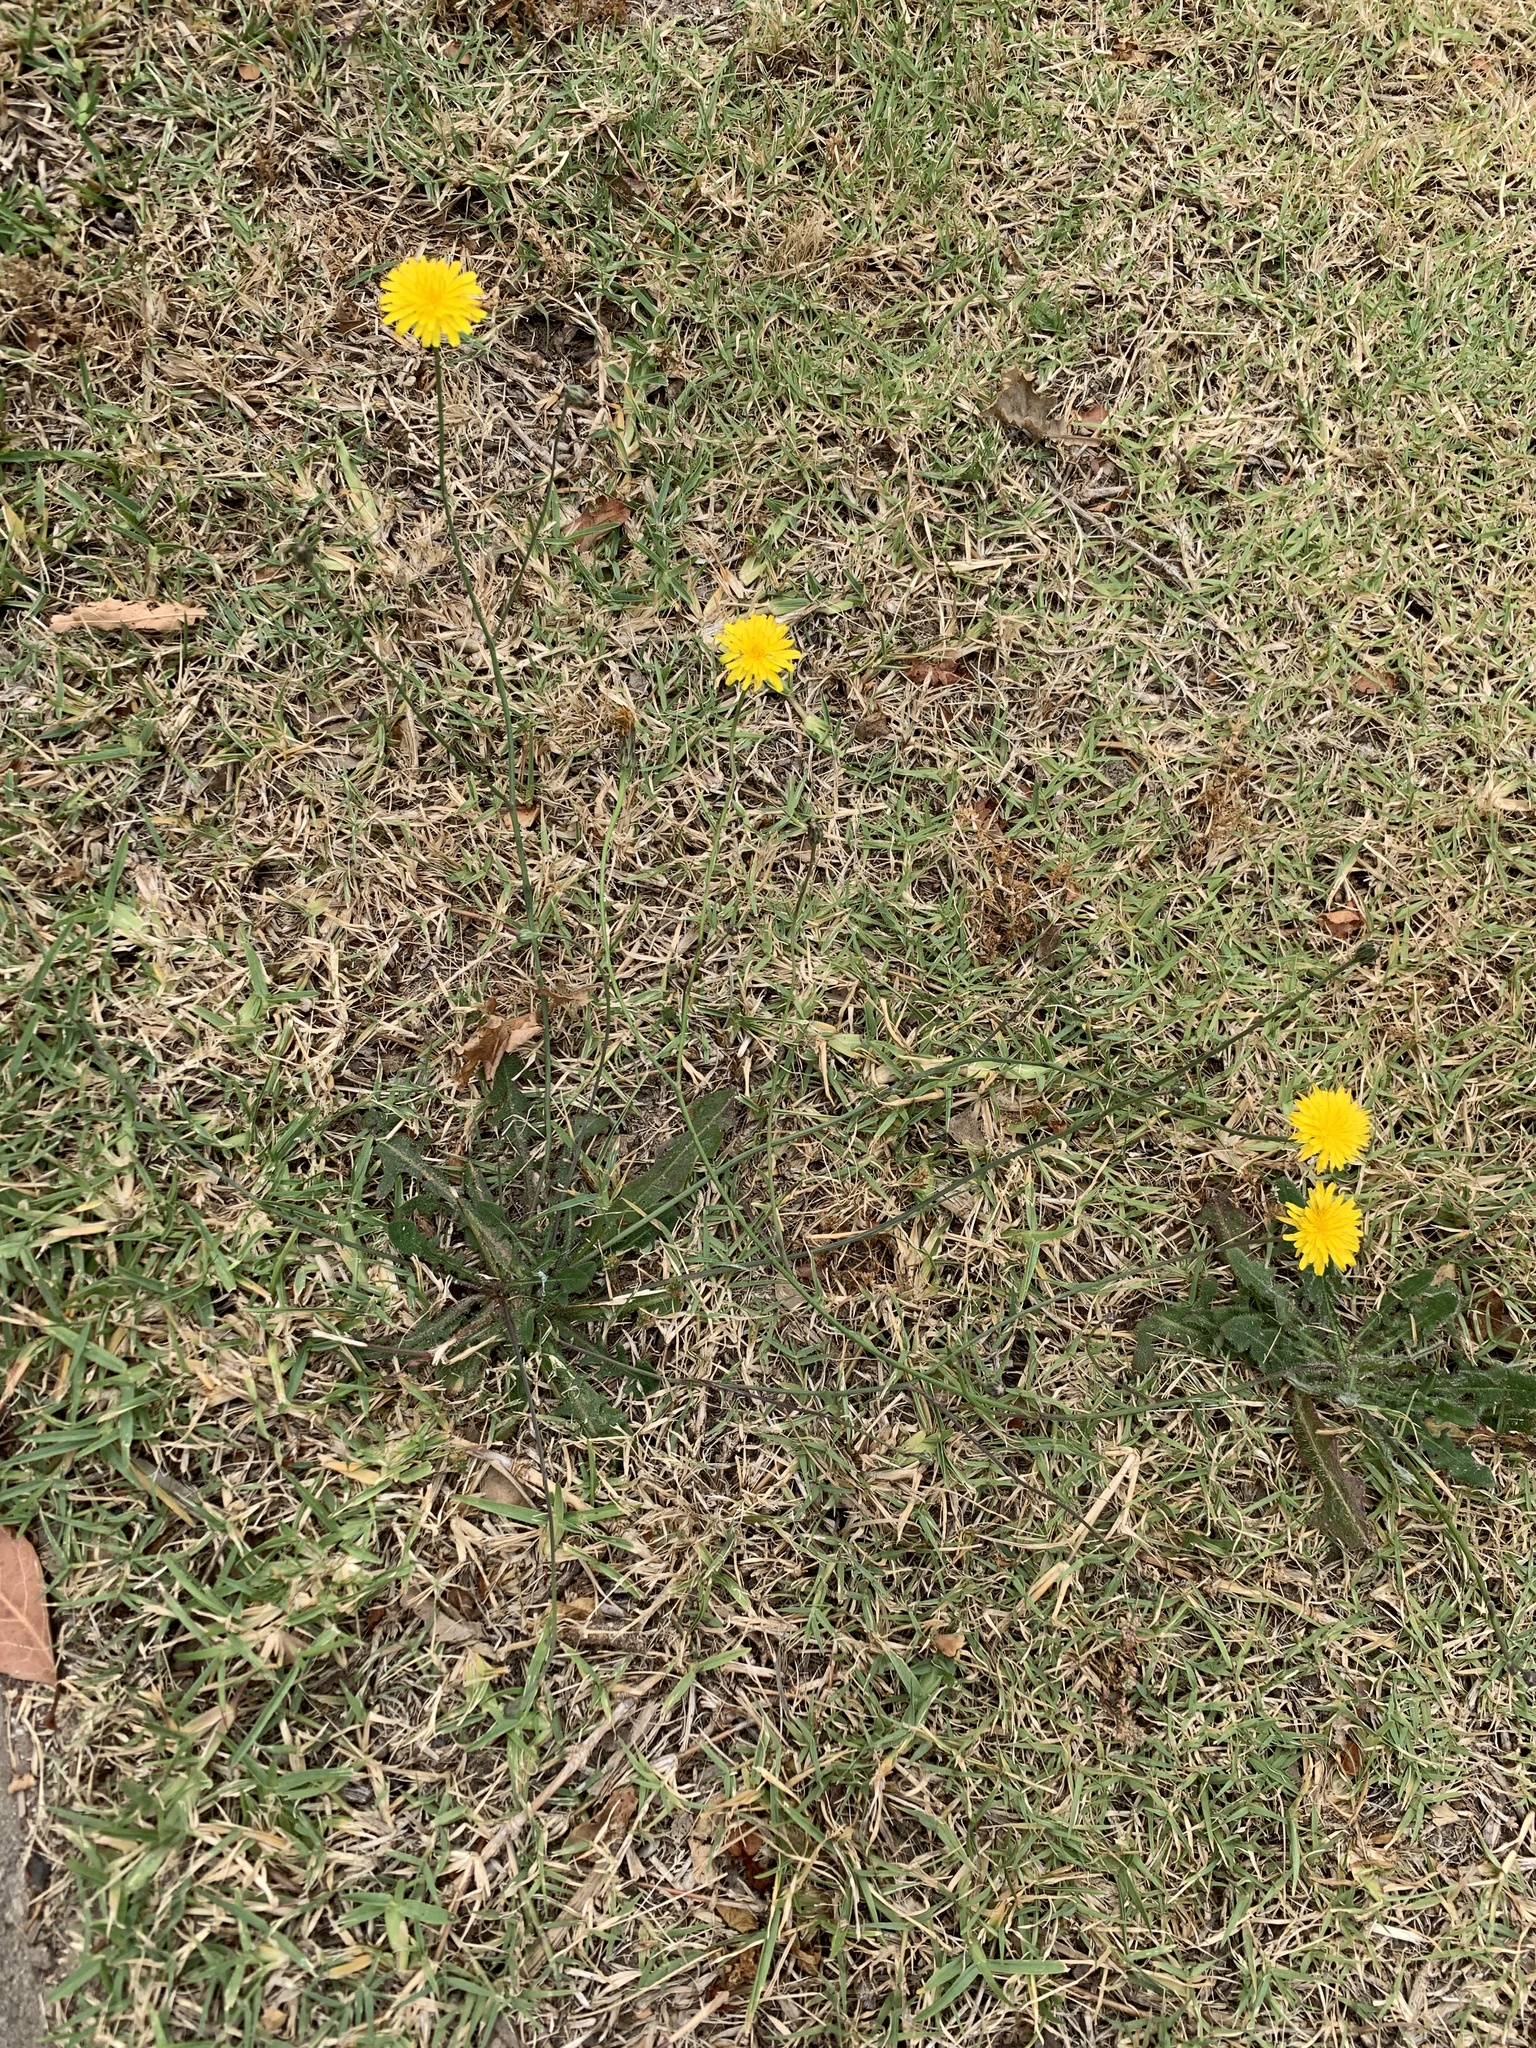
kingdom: Plantae
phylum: Tracheophyta
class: Magnoliopsida
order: Asterales
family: Asteraceae
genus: Hypochaeris
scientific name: Hypochaeris radicata
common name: Flatweed
